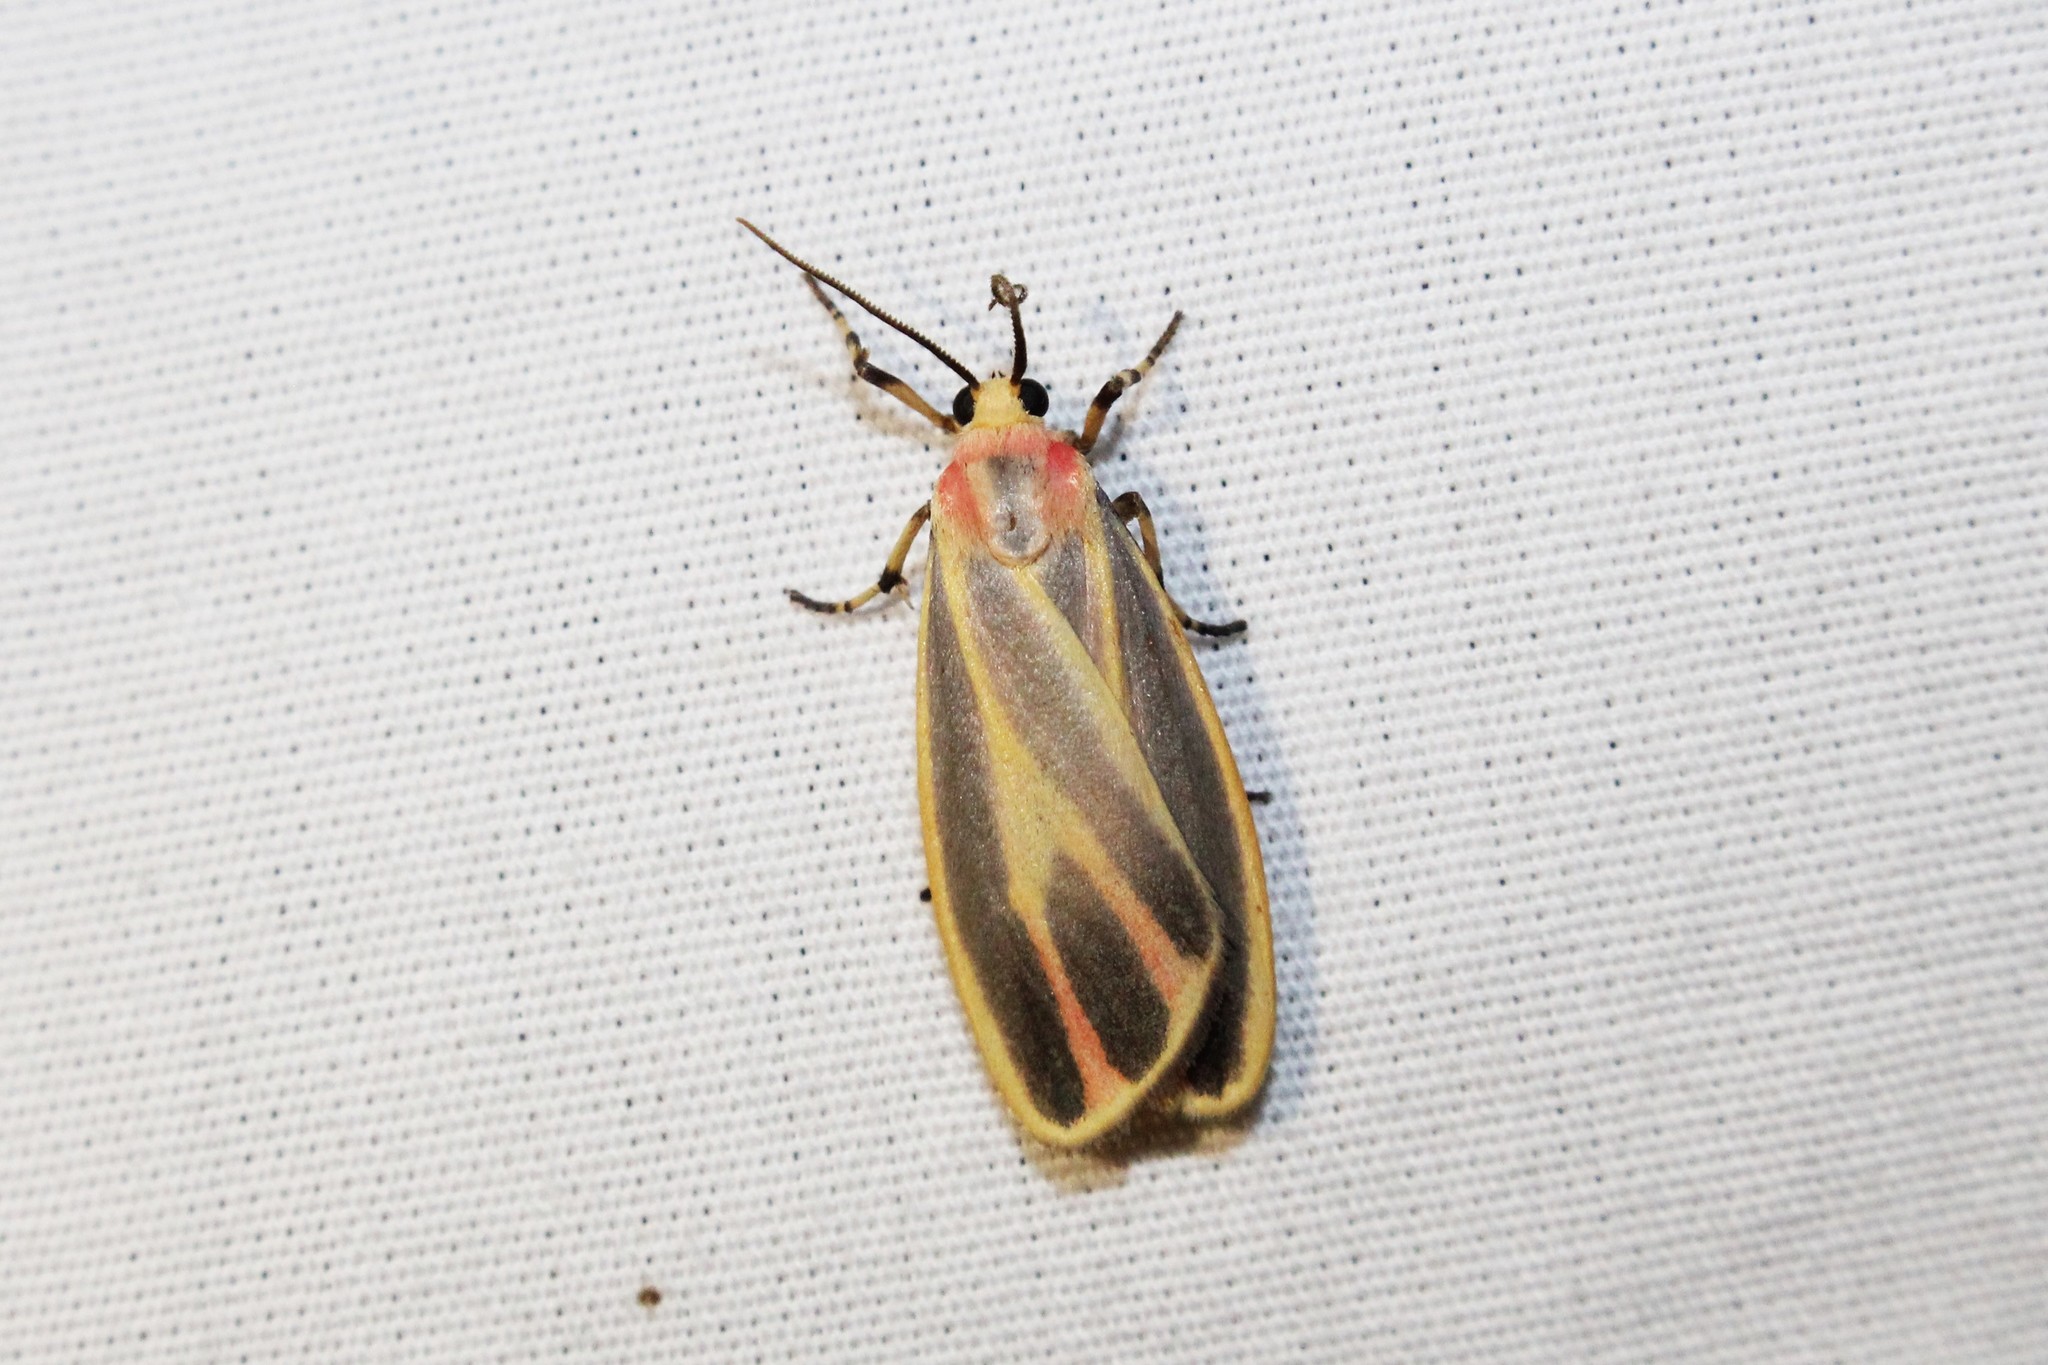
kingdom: Animalia
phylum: Arthropoda
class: Insecta
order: Lepidoptera
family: Erebidae
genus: Hypoprepia
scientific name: Hypoprepia fucosa
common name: Painted lichen moth
